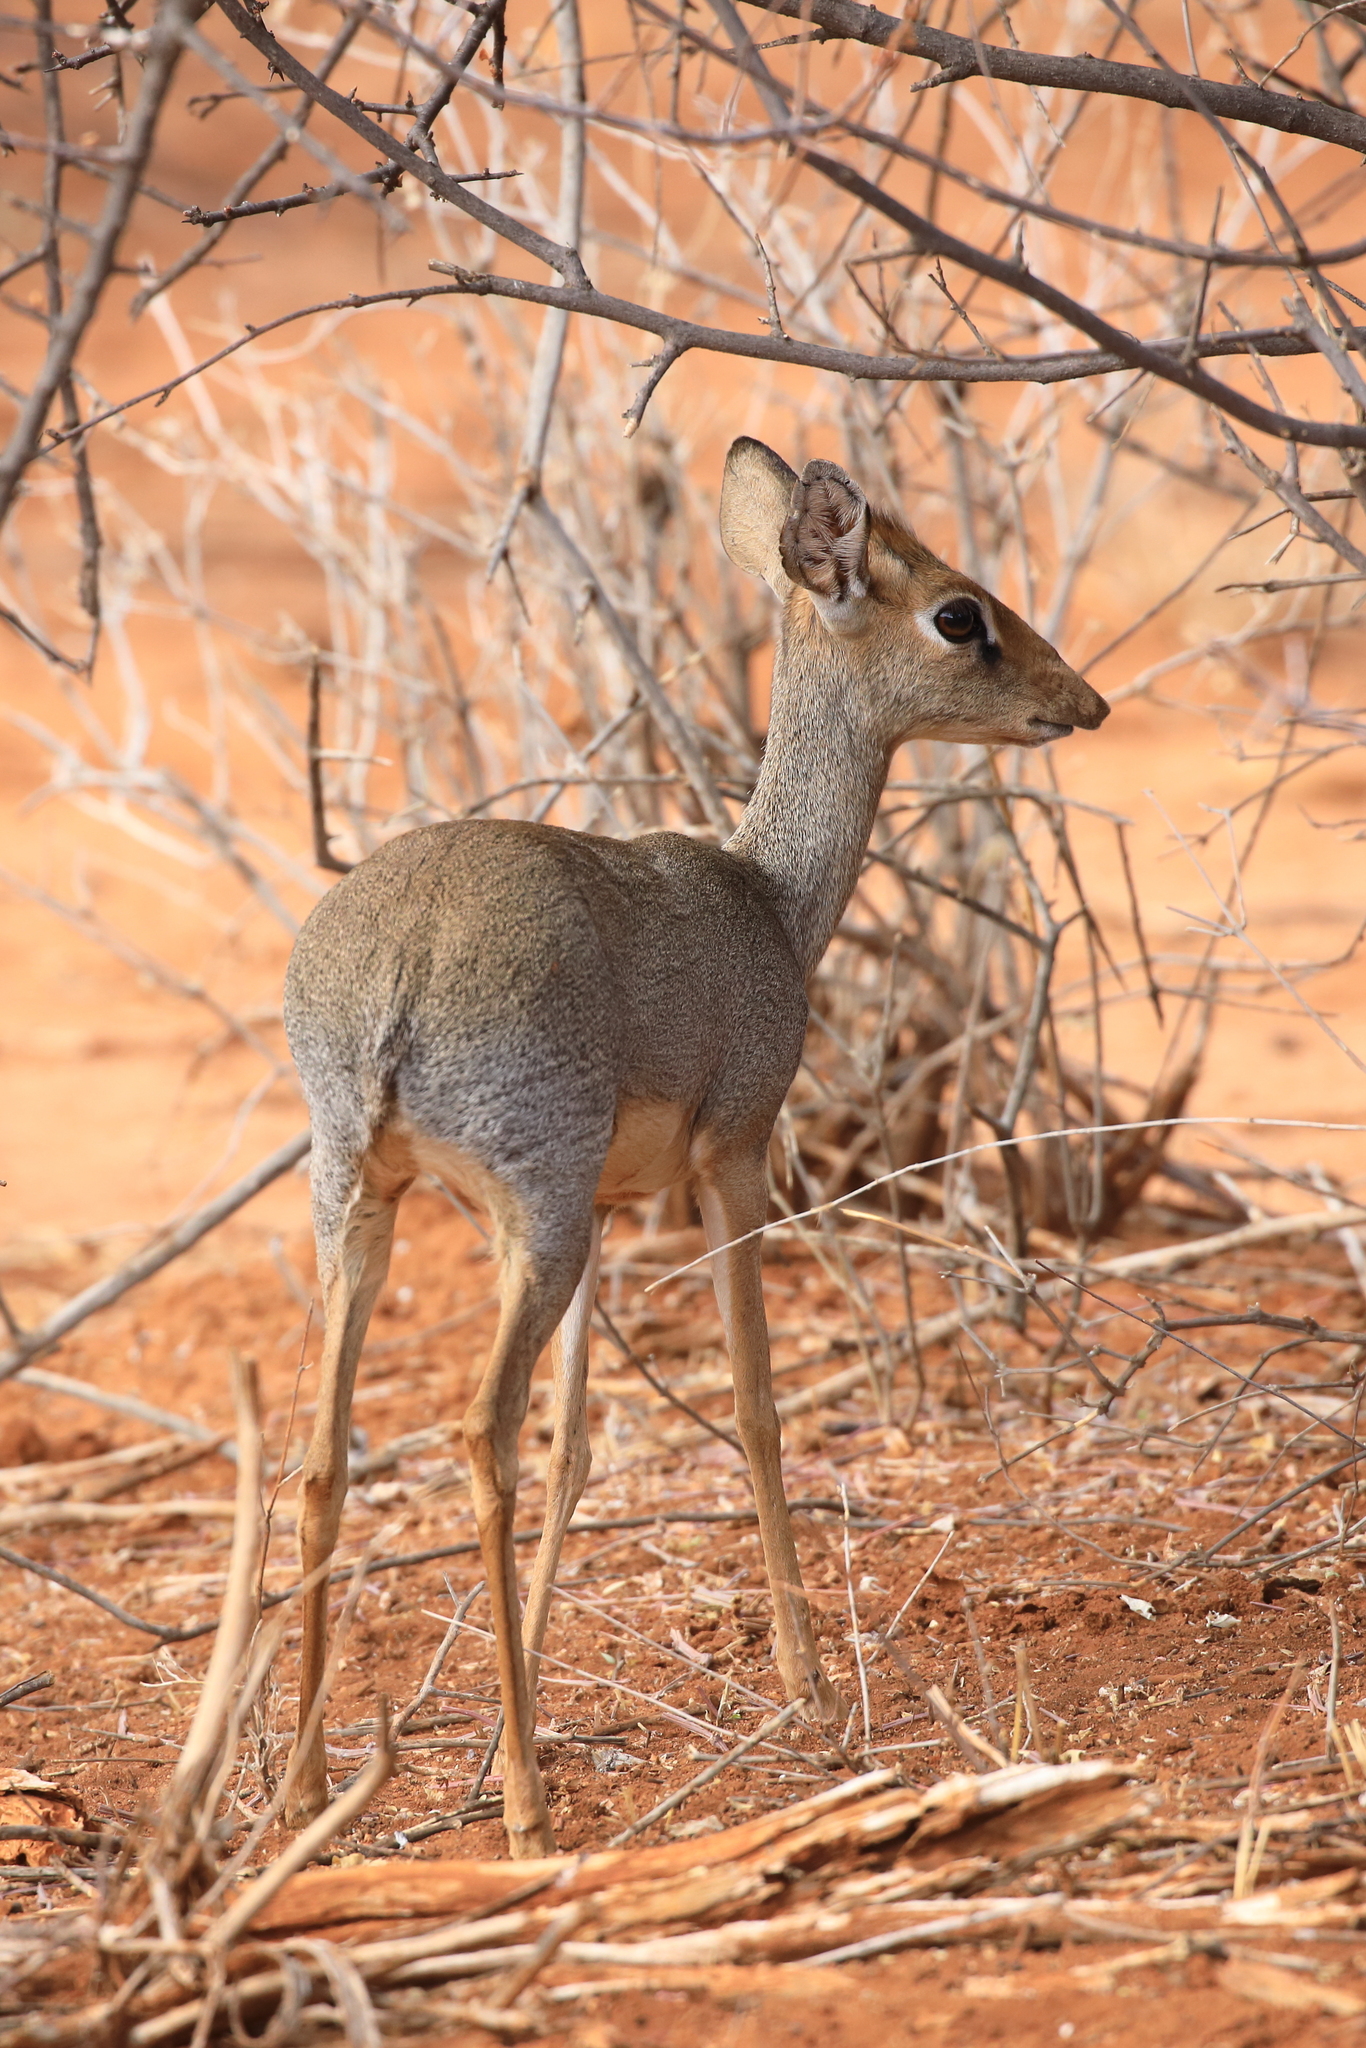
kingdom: Animalia
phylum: Chordata
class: Mammalia
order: Artiodactyla
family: Bovidae
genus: Madoqua
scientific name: Madoqua kirkii
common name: Kirk's dik-dik
